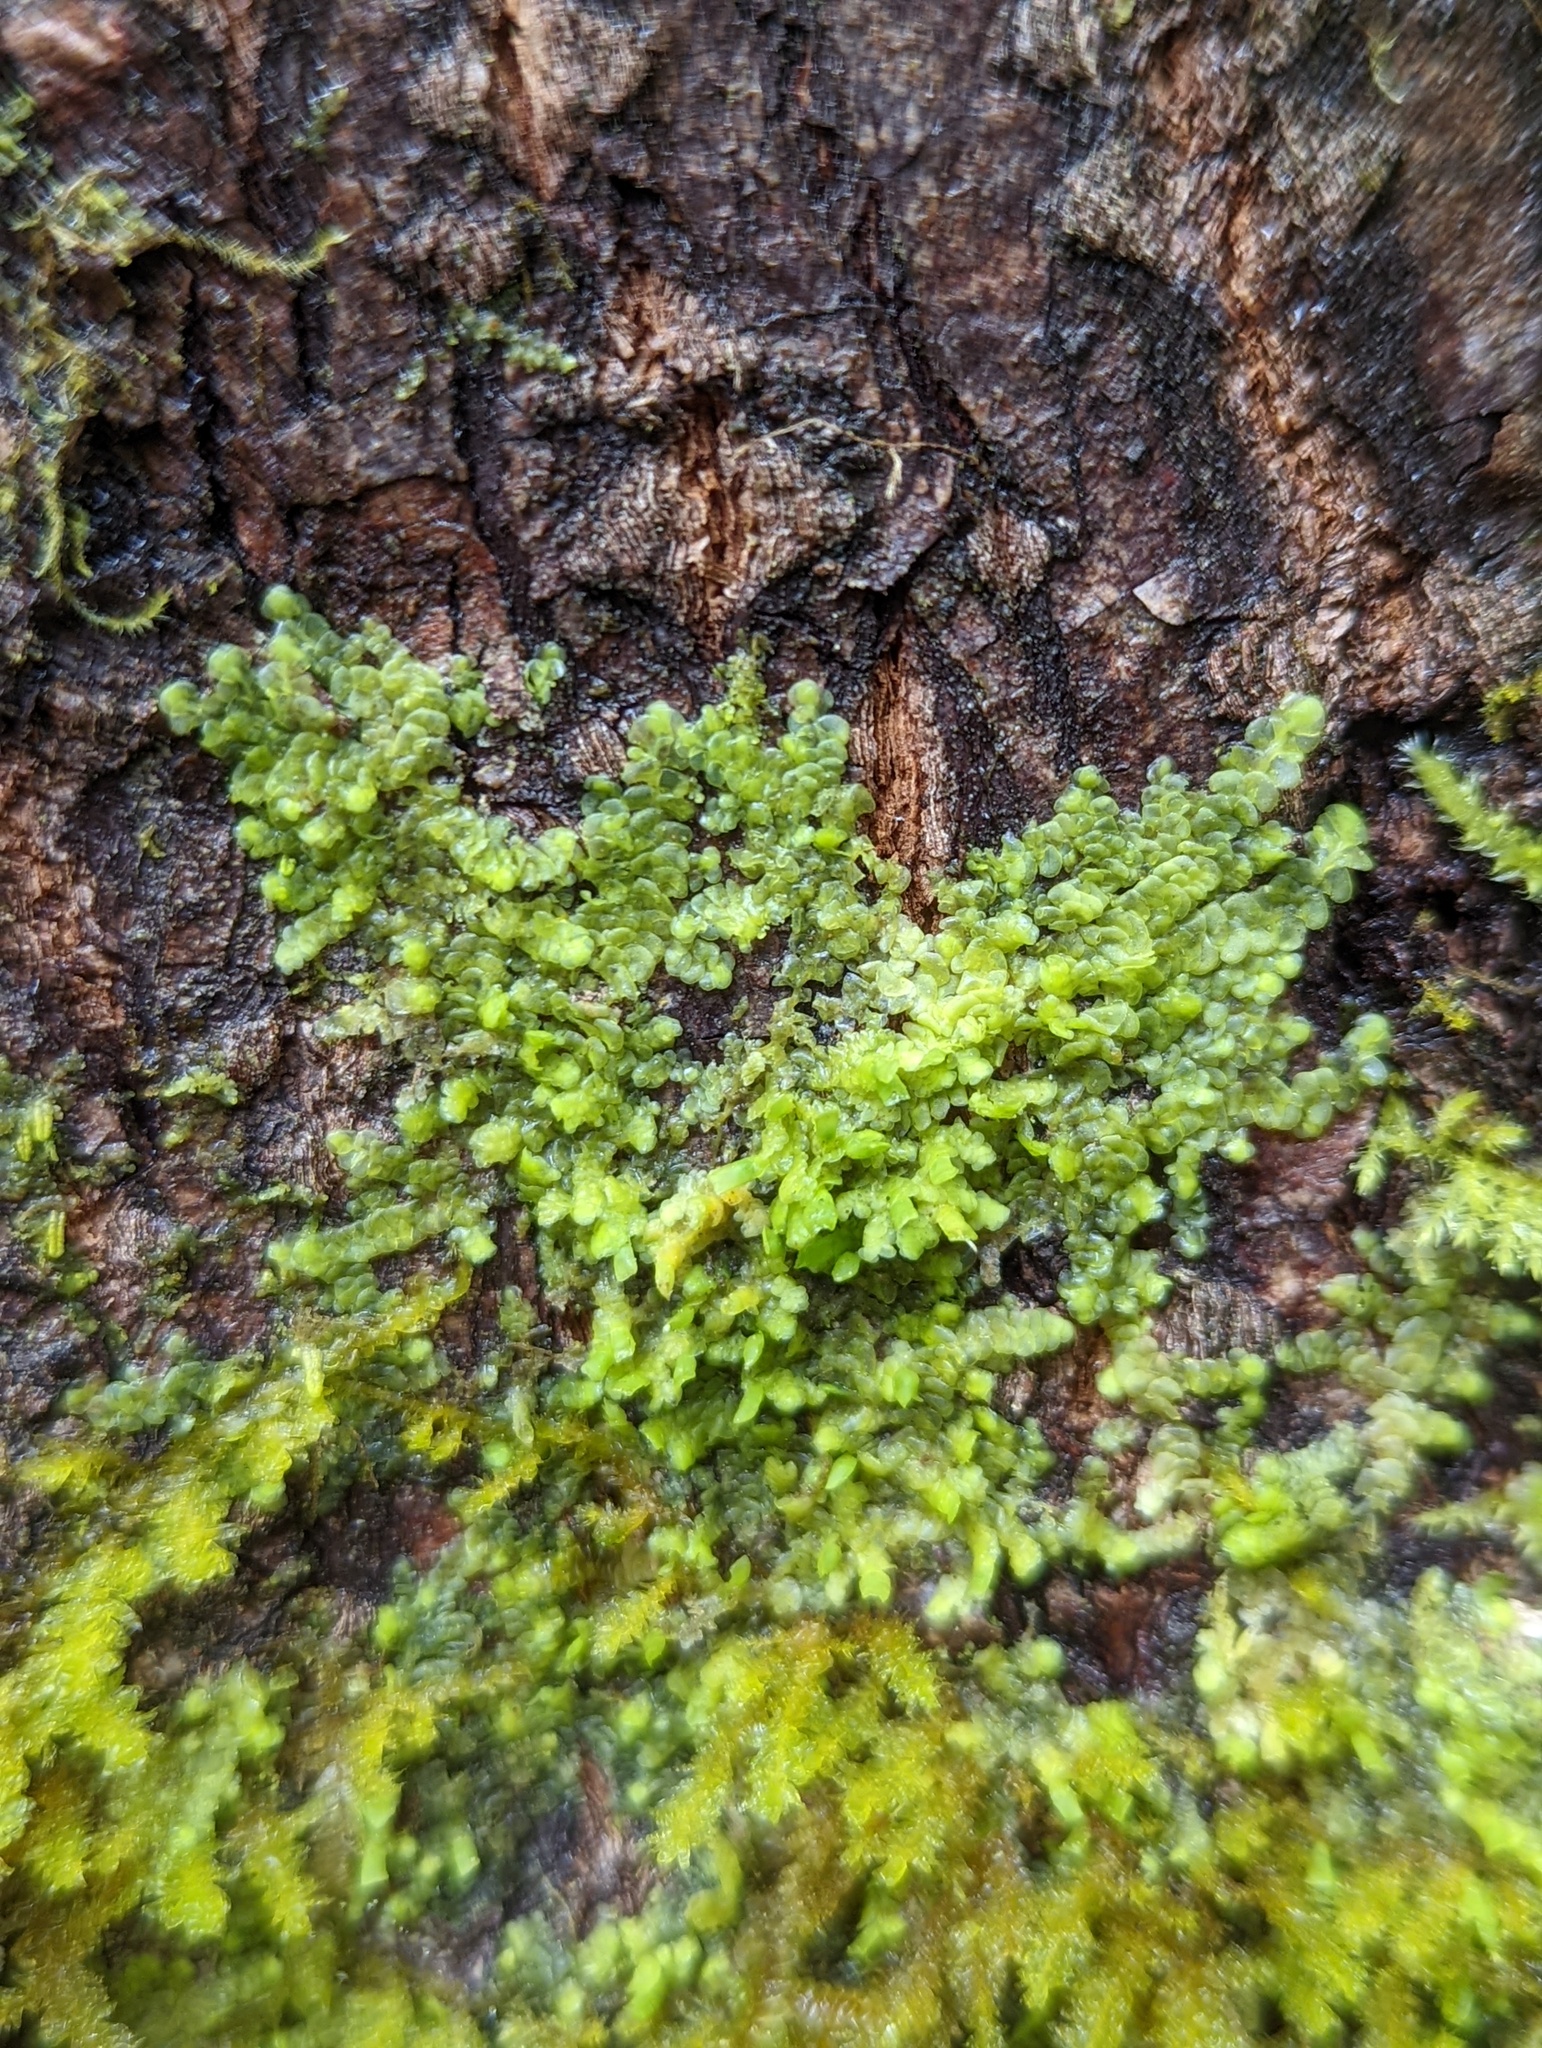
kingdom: Plantae
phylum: Marchantiophyta
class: Jungermanniopsida
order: Porellales
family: Radulaceae
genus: Radula
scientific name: Radula complanata
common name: Flat-leaved scalewort
